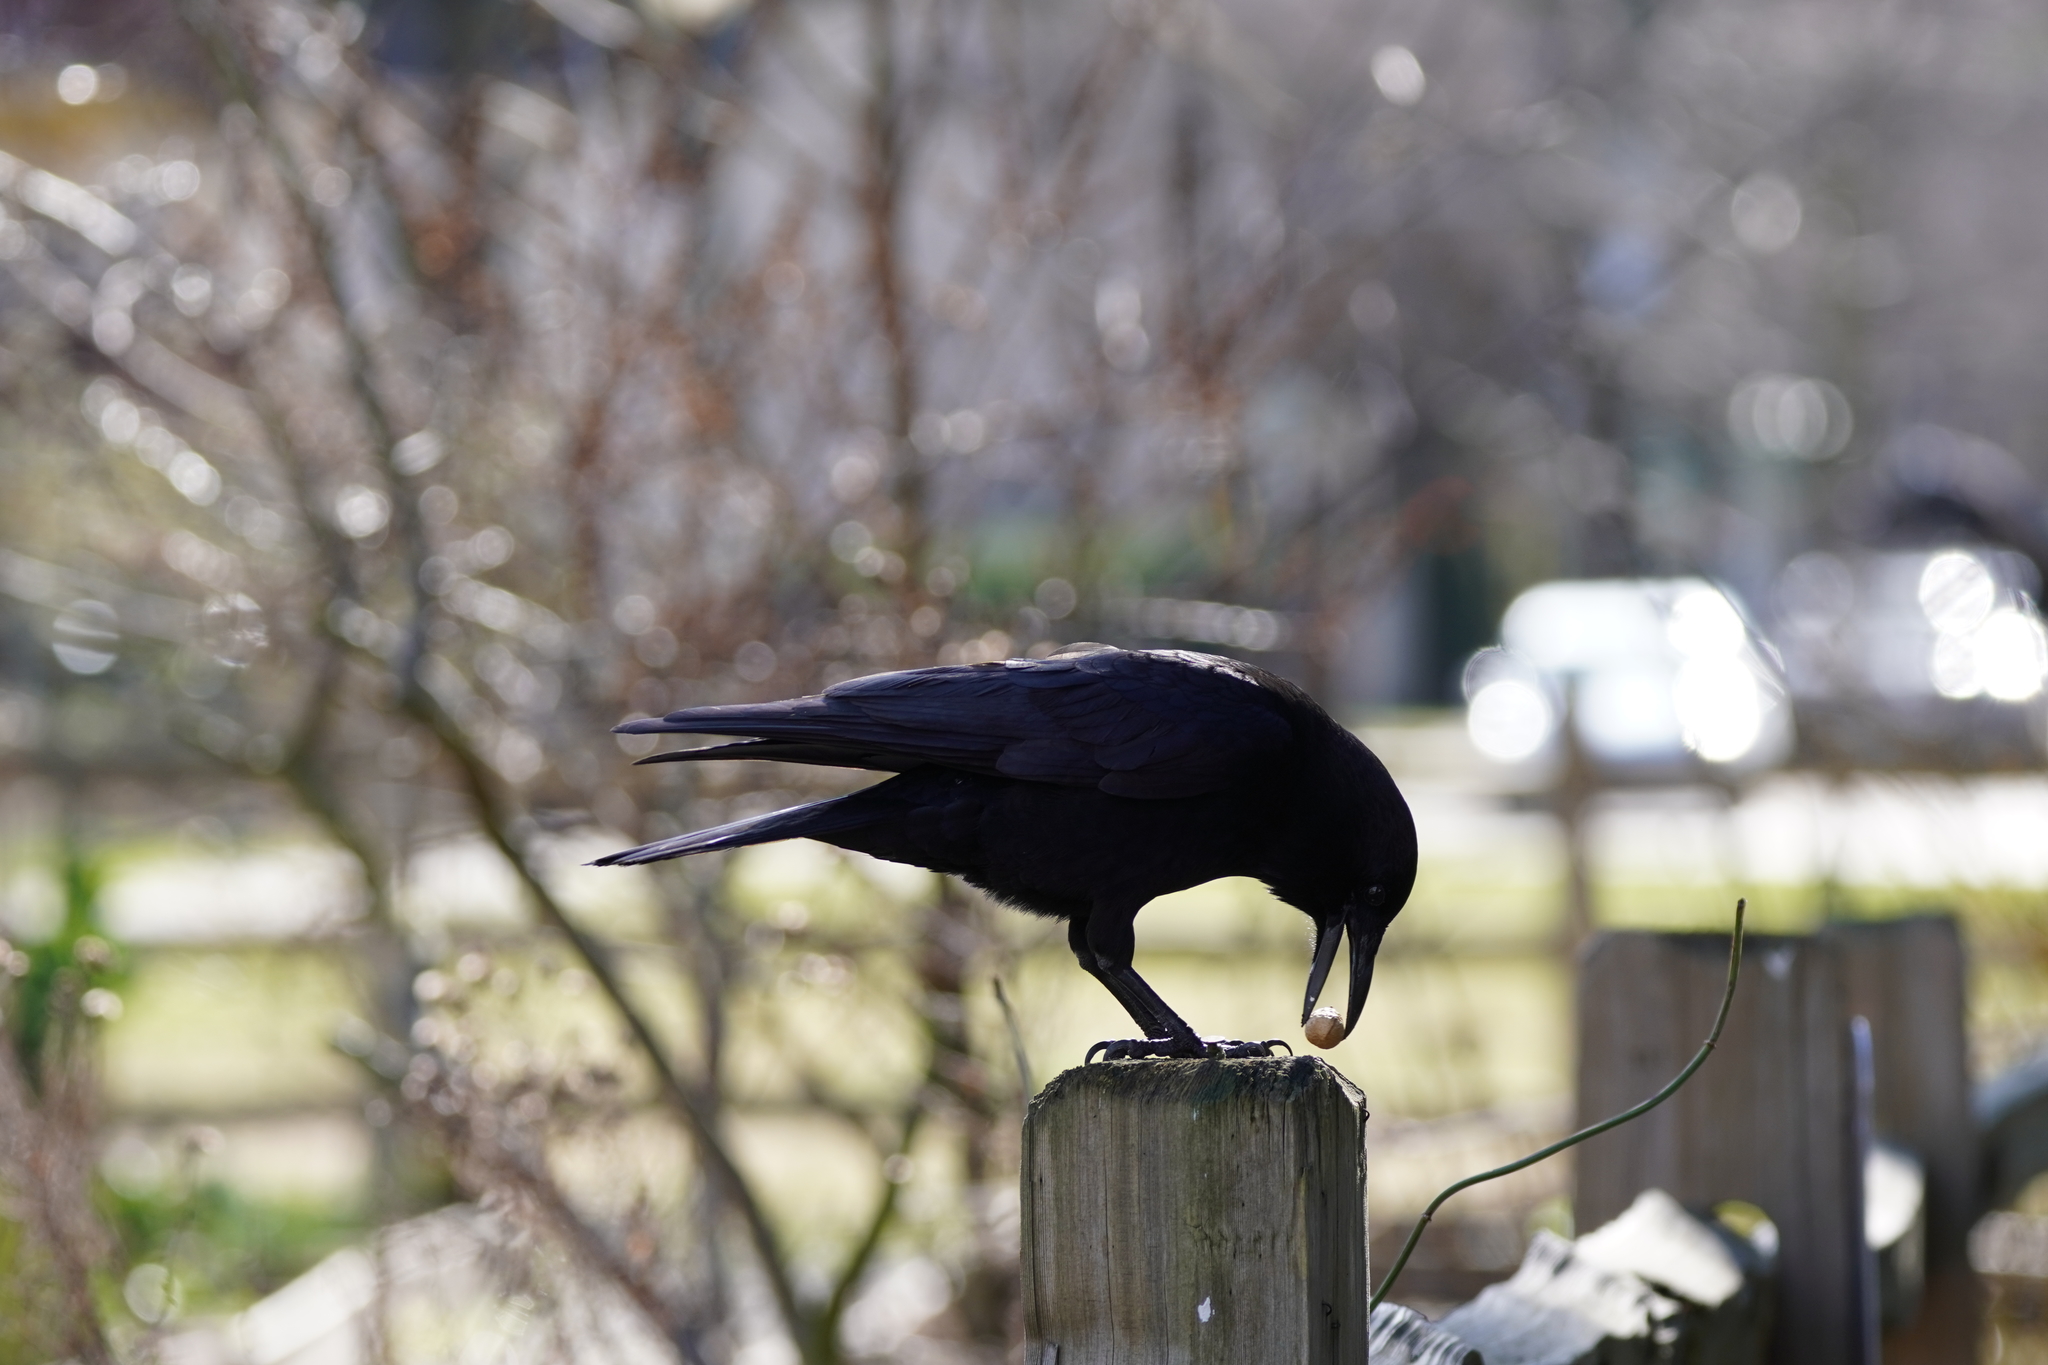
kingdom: Animalia
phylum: Chordata
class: Aves
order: Passeriformes
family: Corvidae
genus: Corvus
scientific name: Corvus brachyrhynchos
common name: American crow
